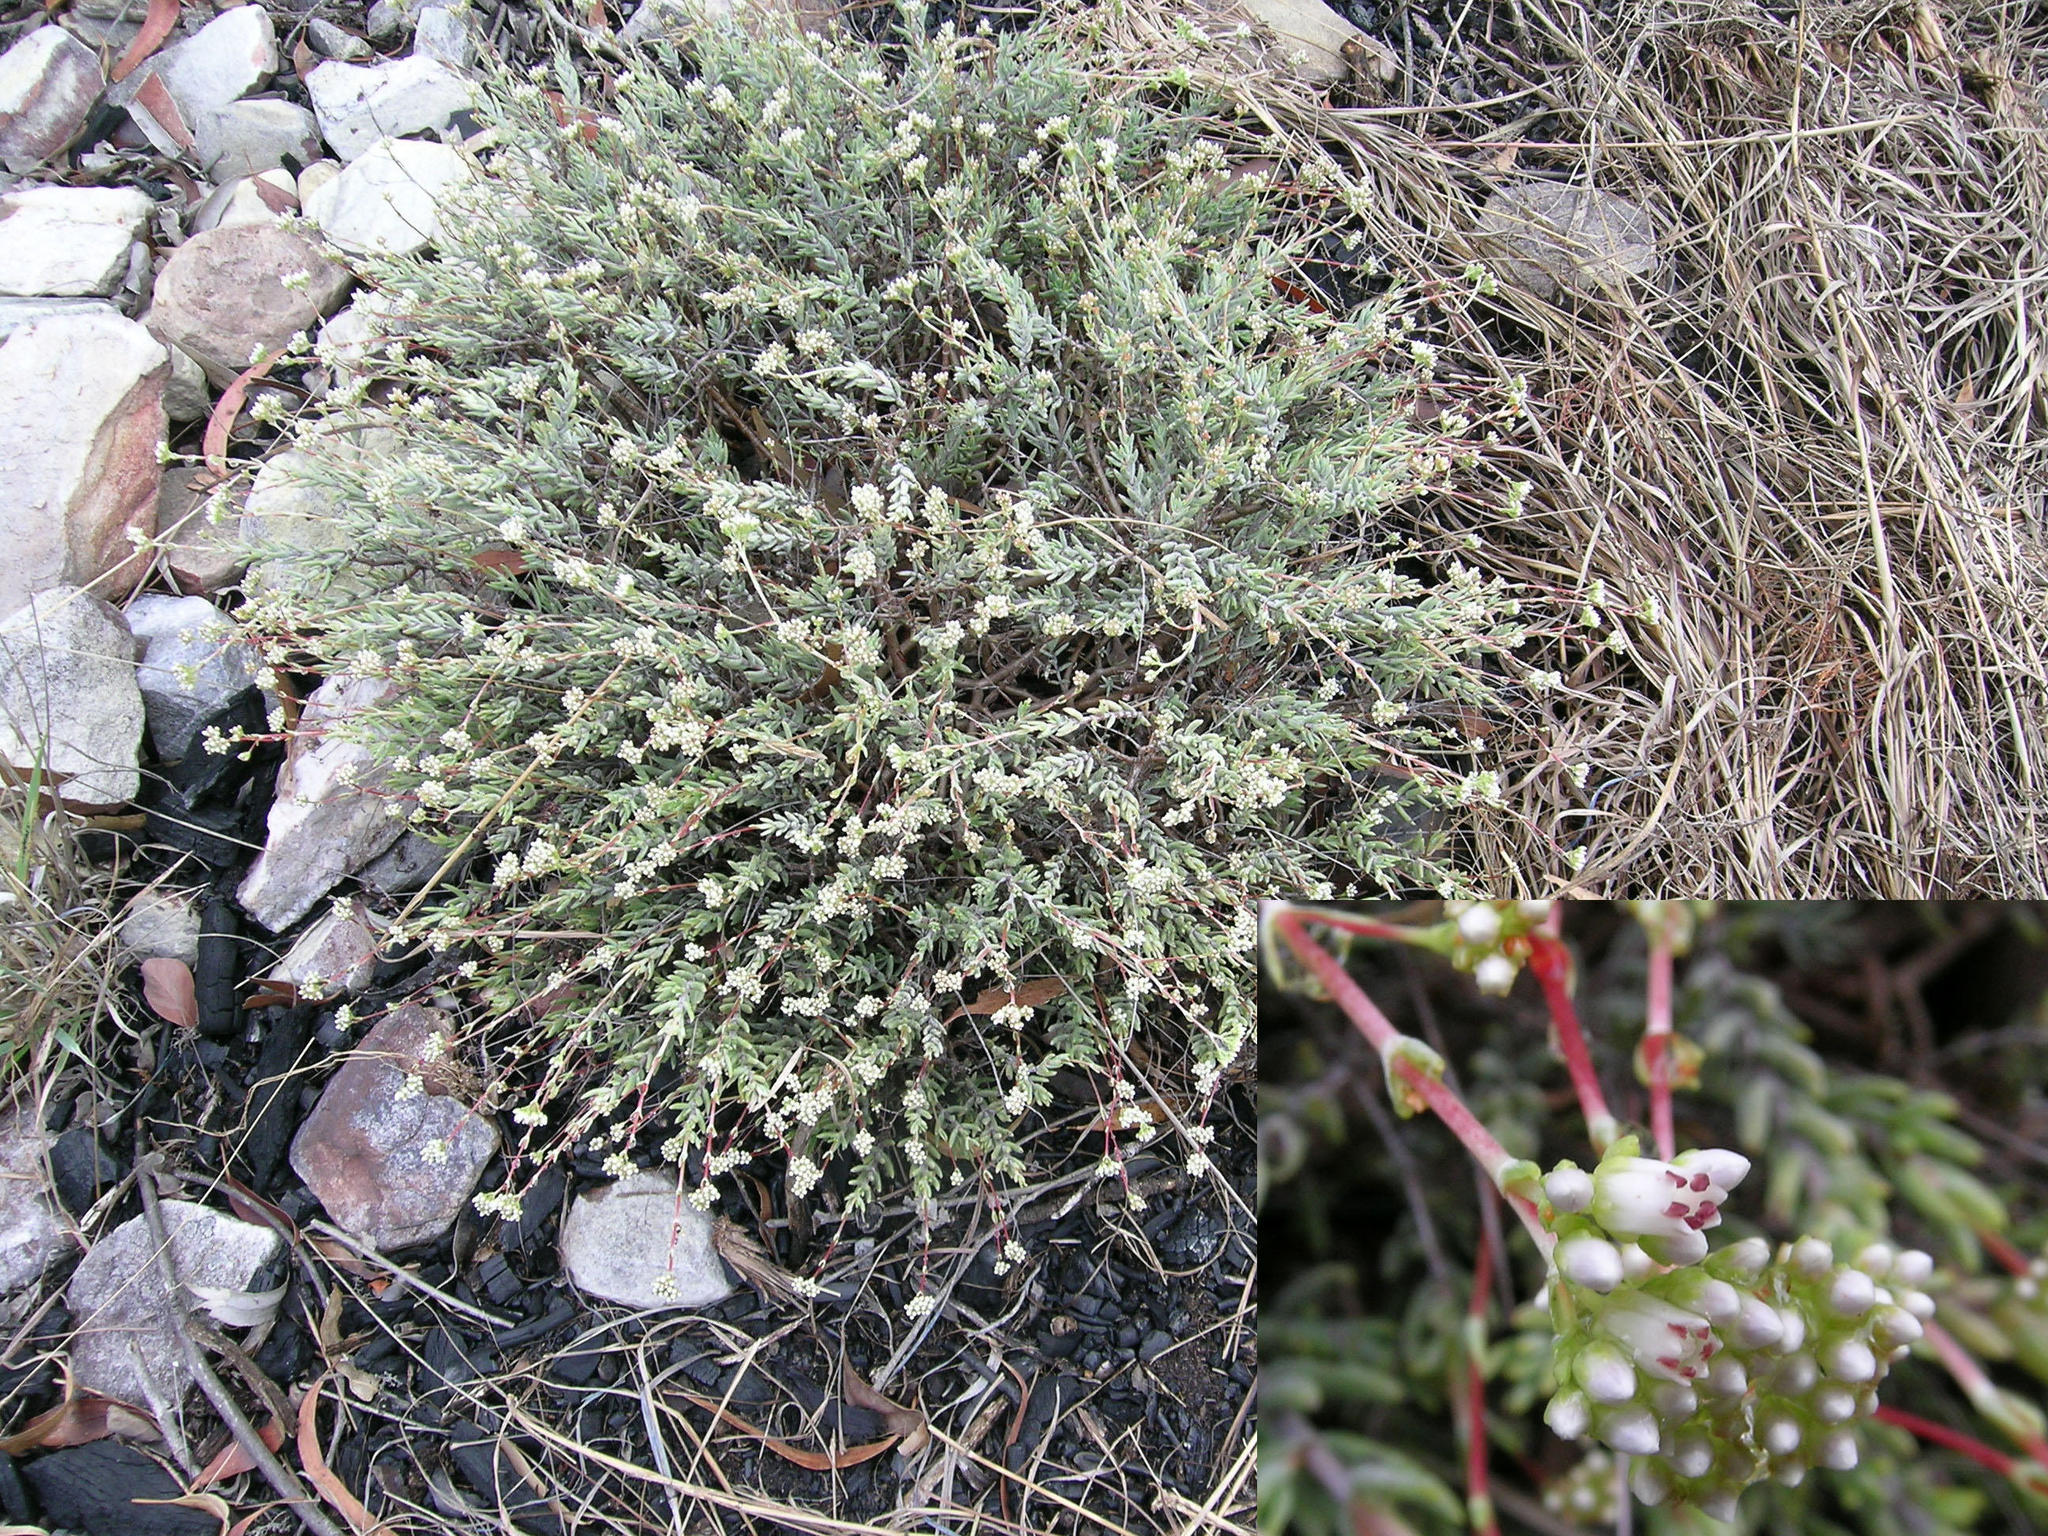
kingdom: Plantae
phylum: Tracheophyta
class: Magnoliopsida
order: Saxifragales
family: Crassulaceae
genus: Crassula
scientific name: Crassula biplanata
